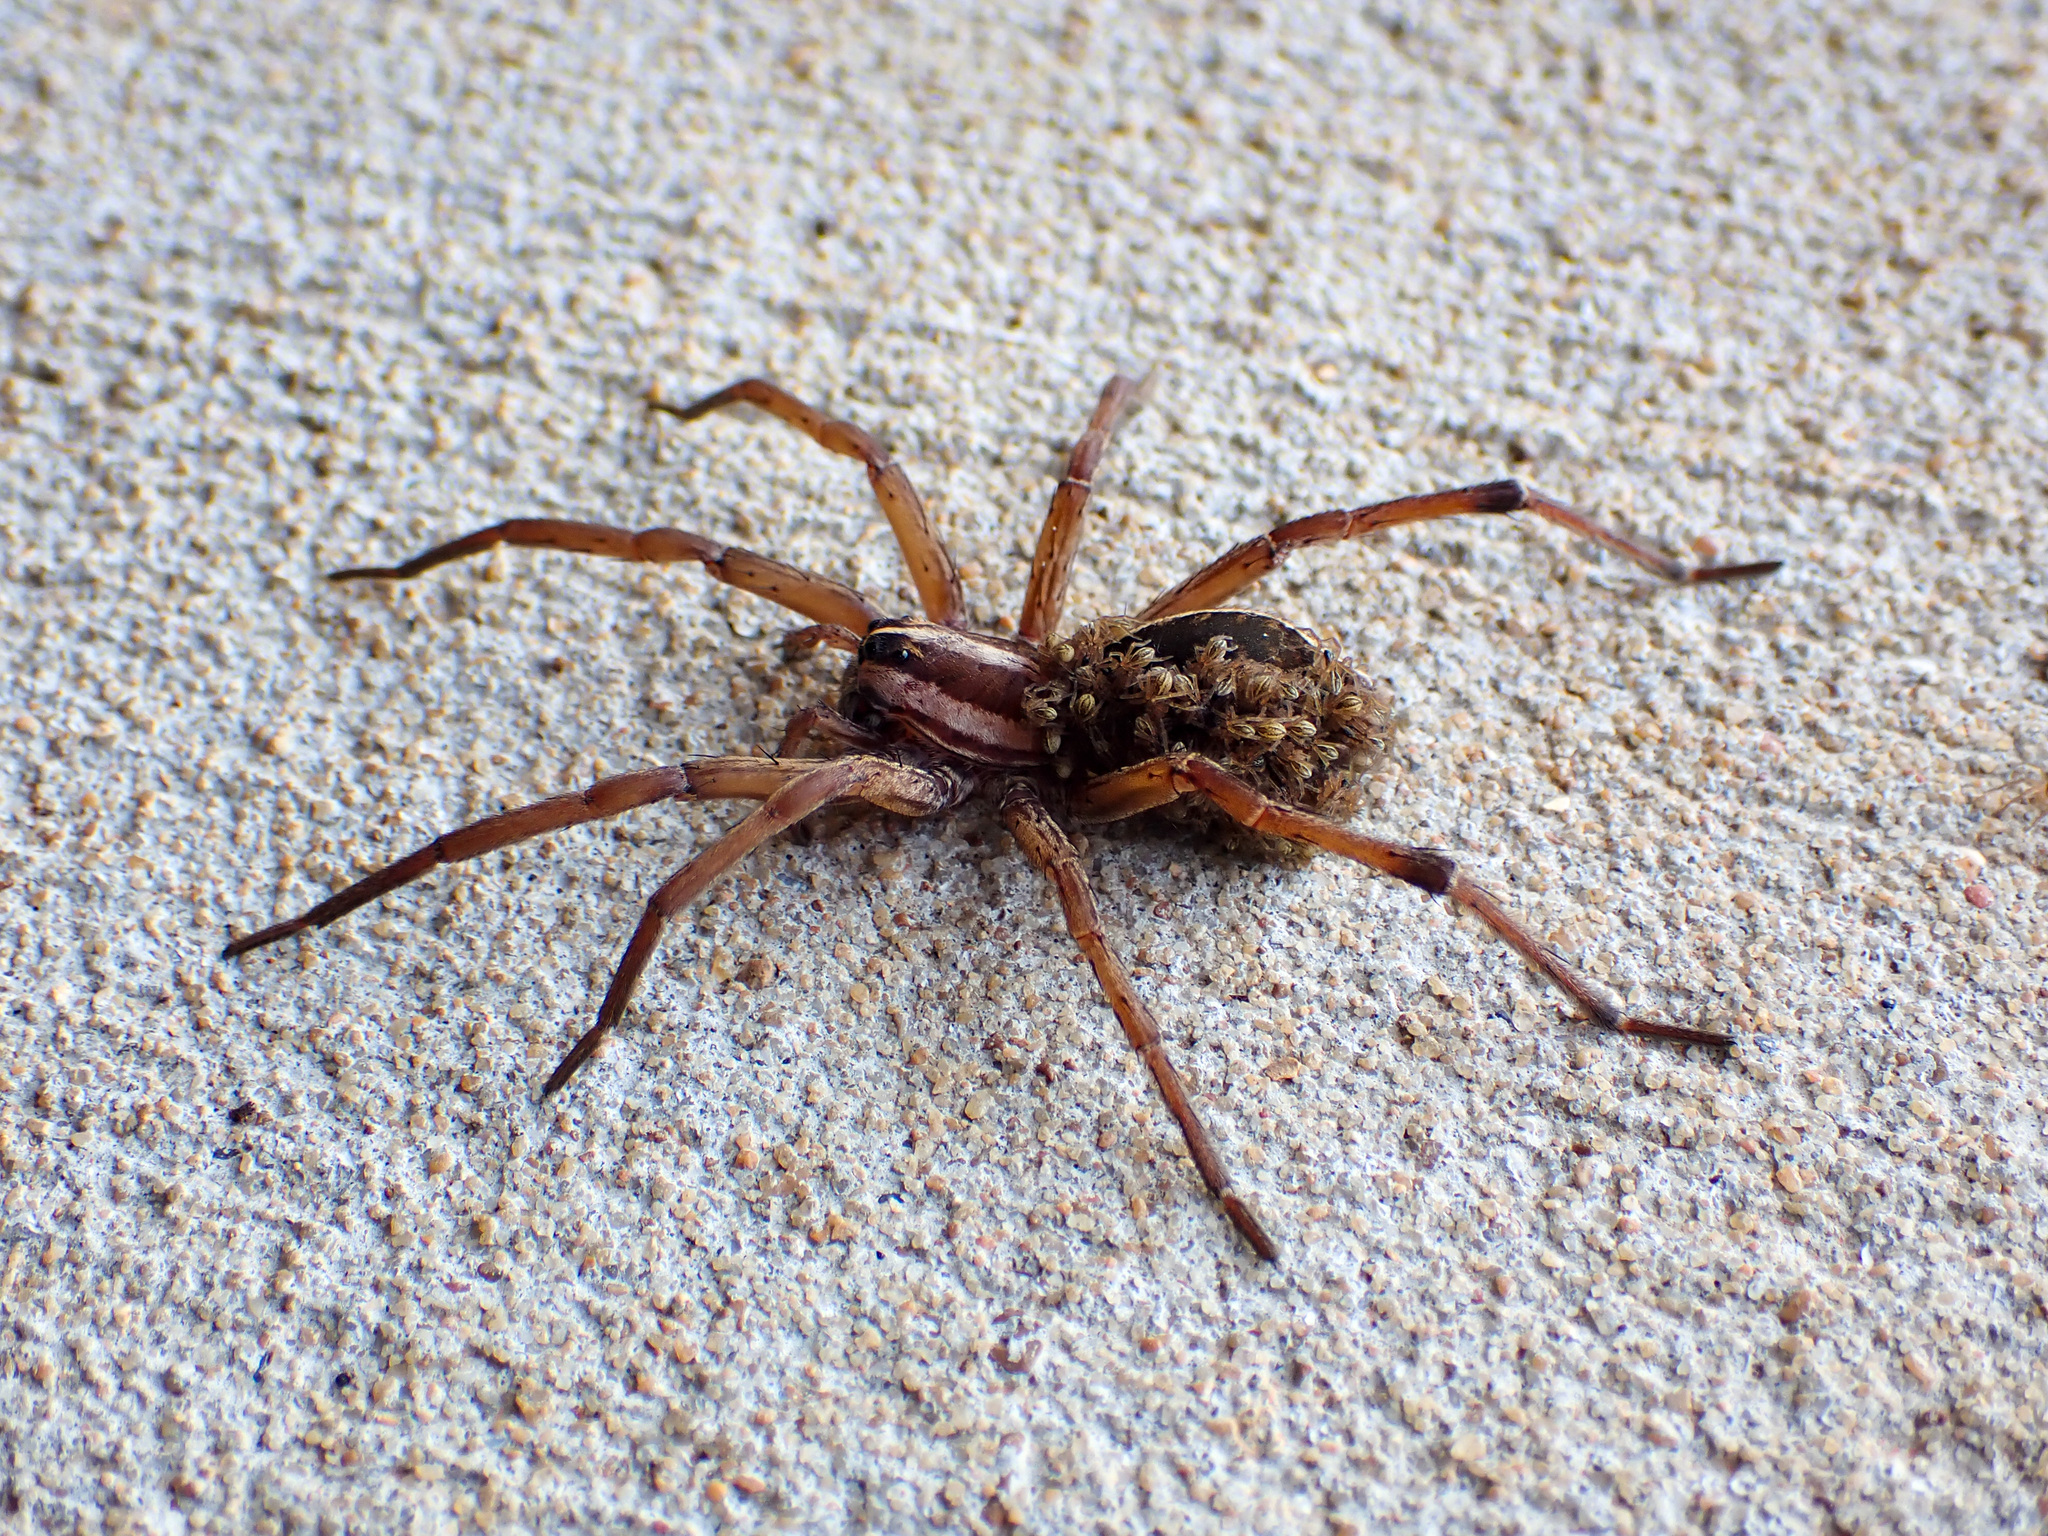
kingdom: Animalia
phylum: Arthropoda
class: Arachnida
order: Araneae
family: Lycosidae
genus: Rabidosa
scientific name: Rabidosa rabida
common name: Rabid wolf spider
